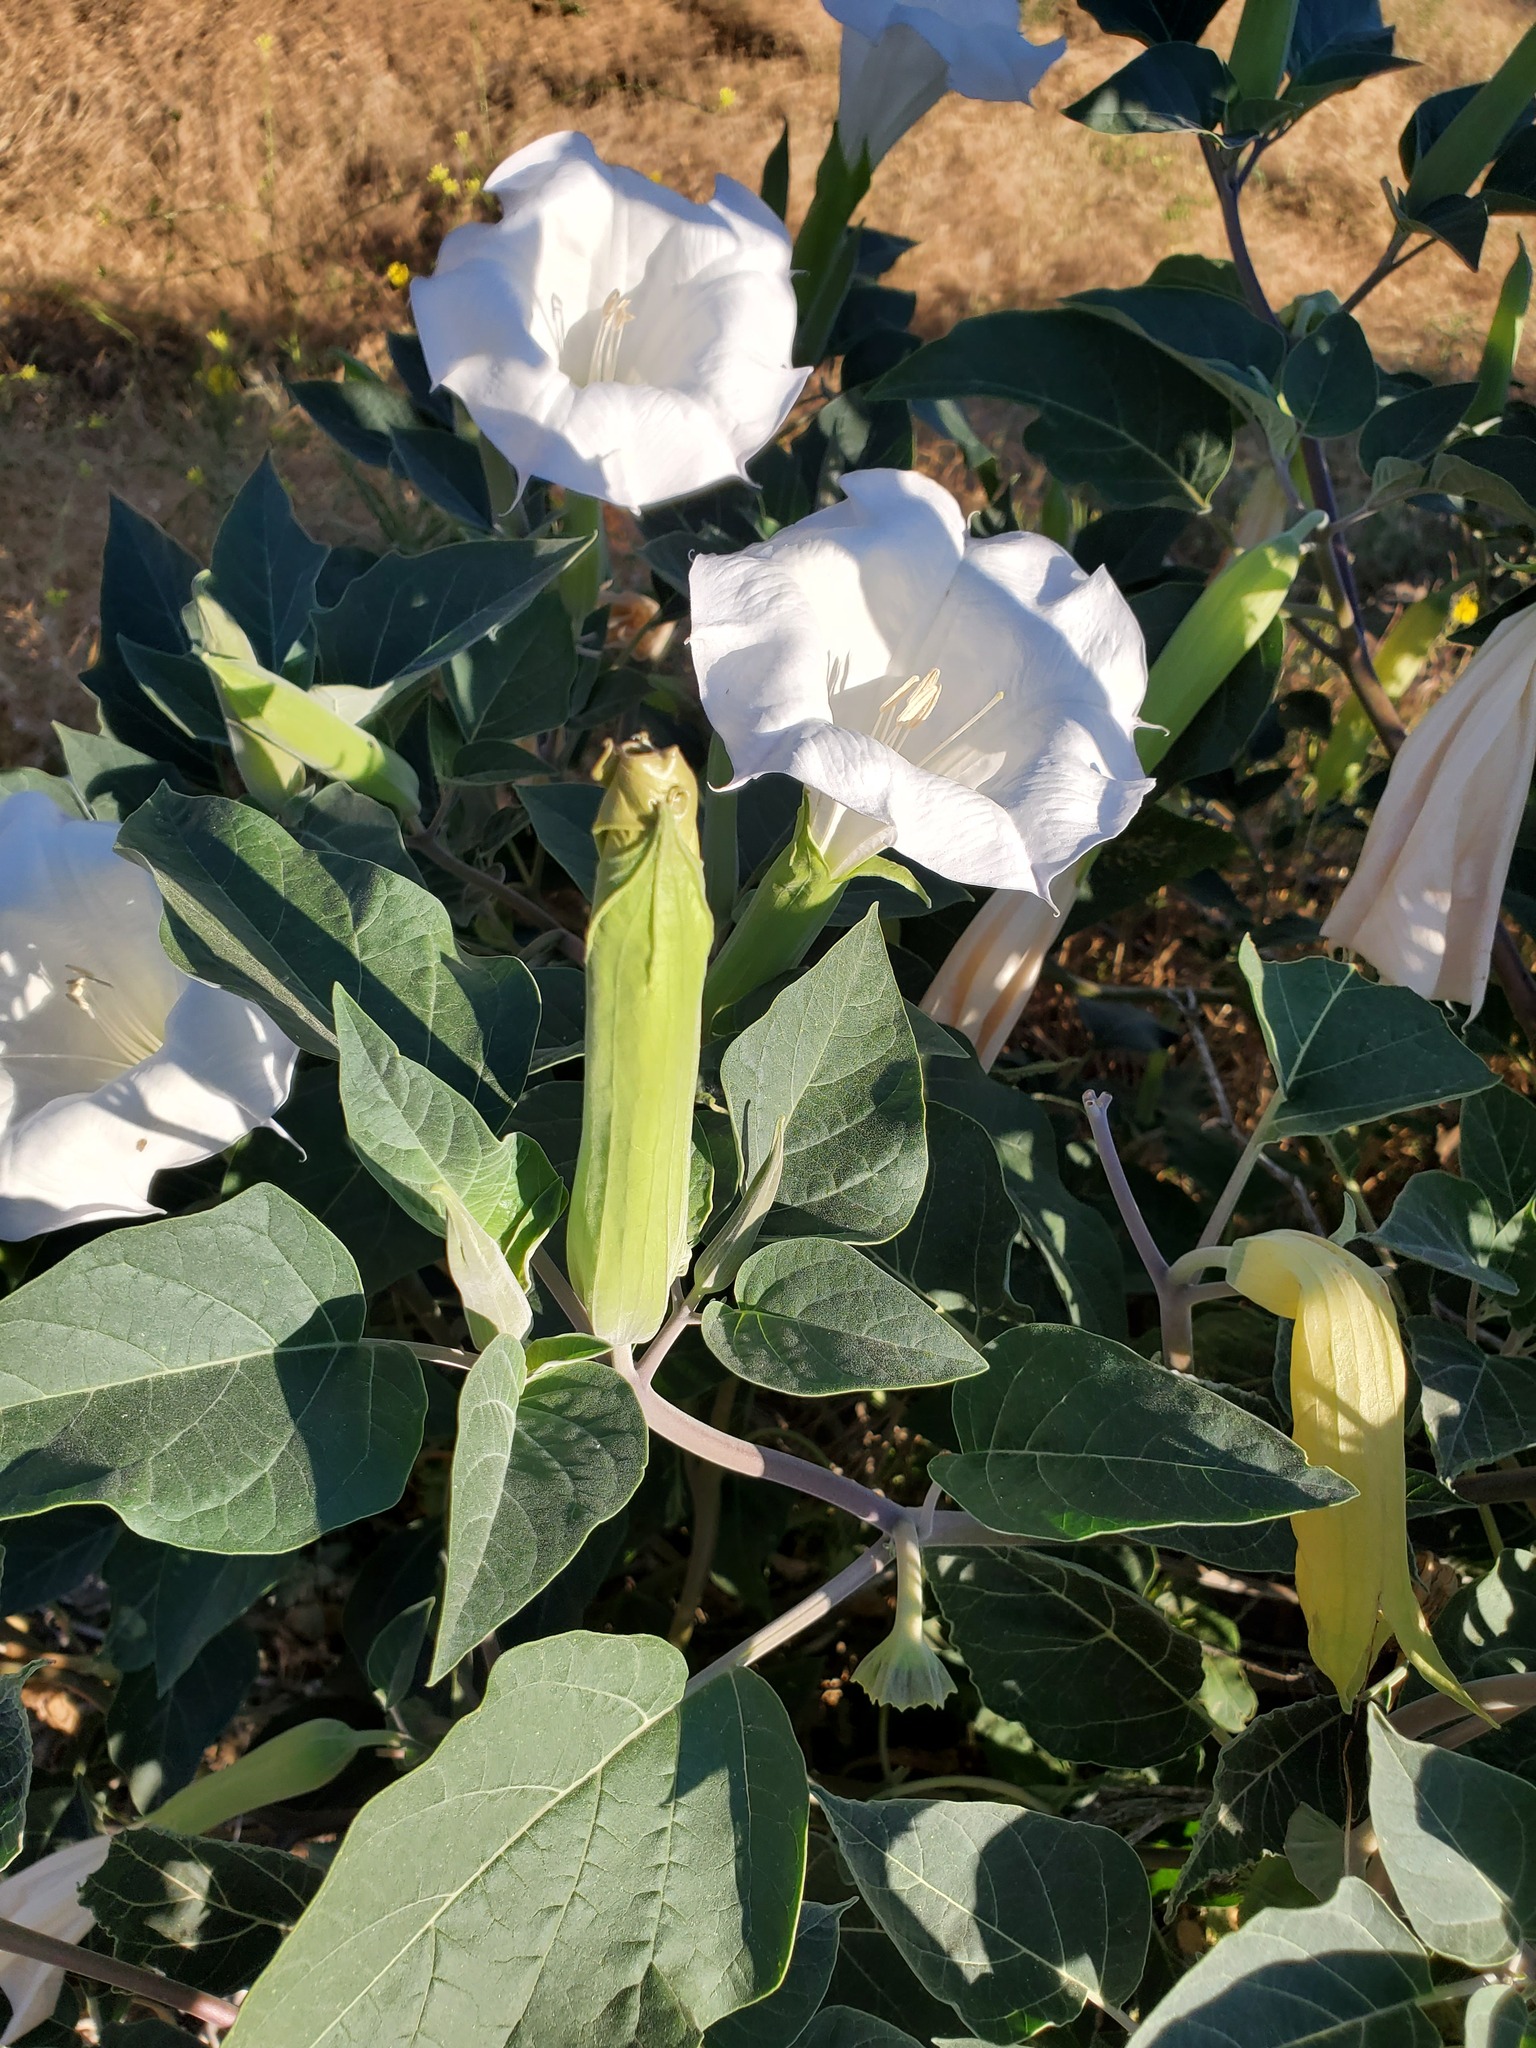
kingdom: Plantae
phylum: Tracheophyta
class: Magnoliopsida
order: Solanales
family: Solanaceae
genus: Datura
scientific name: Datura wrightii
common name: Sacred thorn-apple
